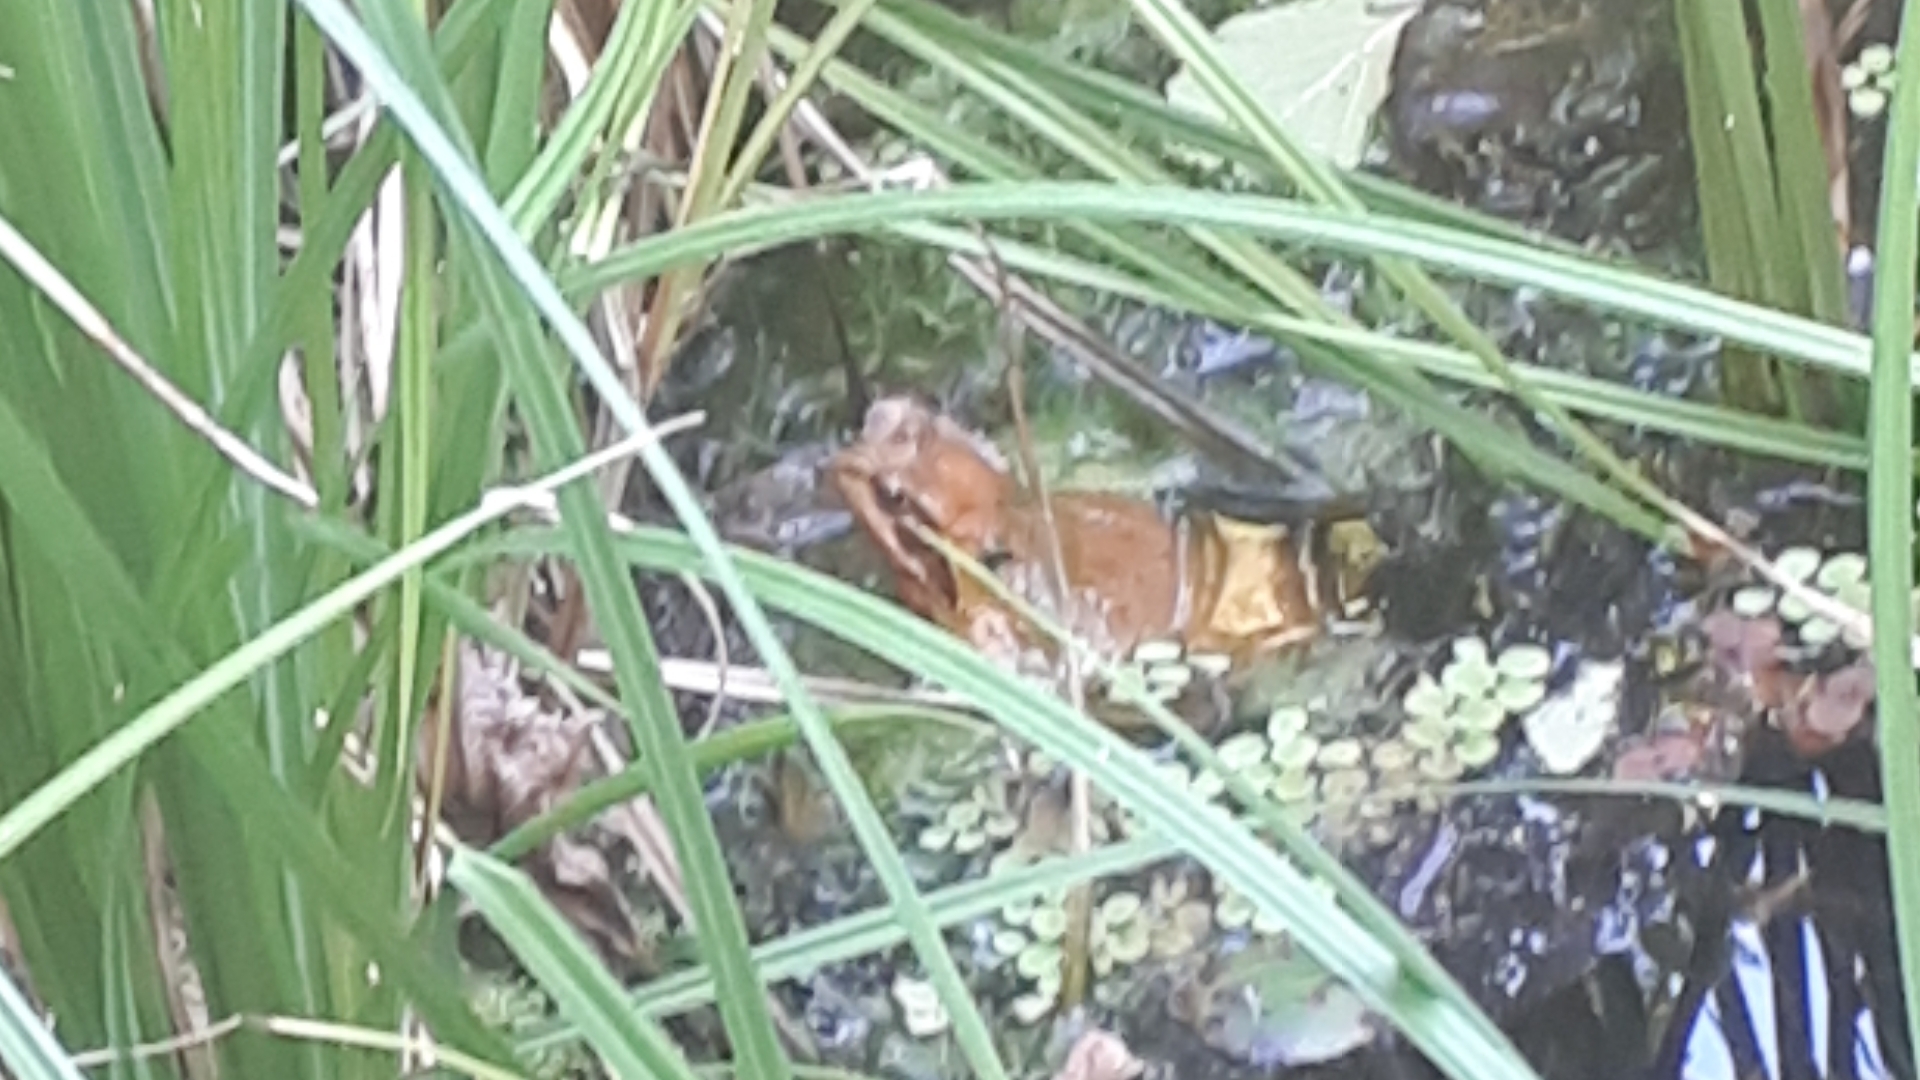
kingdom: Animalia
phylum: Chordata
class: Amphibia
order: Anura
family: Ranidae
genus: Rana
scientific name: Rana temporaria
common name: Common frog
